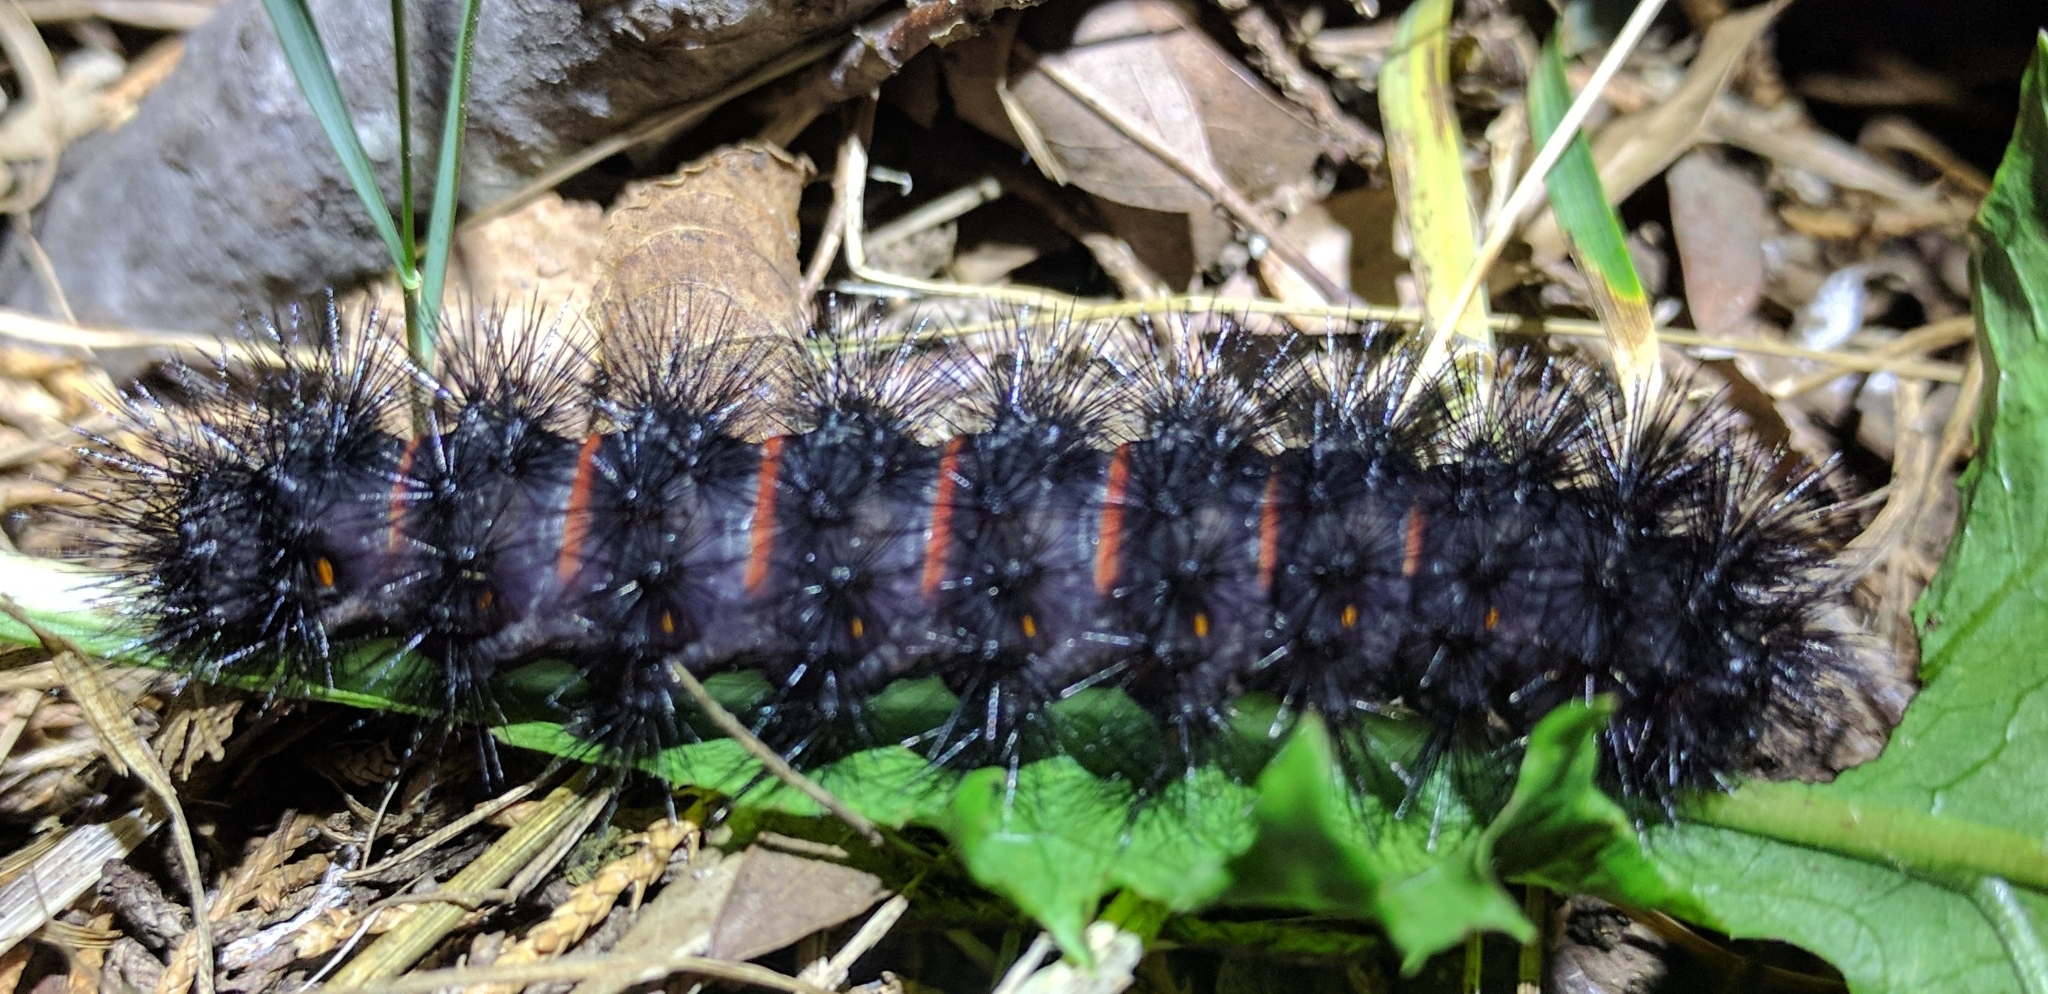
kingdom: Animalia
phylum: Arthropoda
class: Insecta
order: Lepidoptera
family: Erebidae
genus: Hypercompe
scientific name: Hypercompe scribonia
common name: Giant leopard moth
